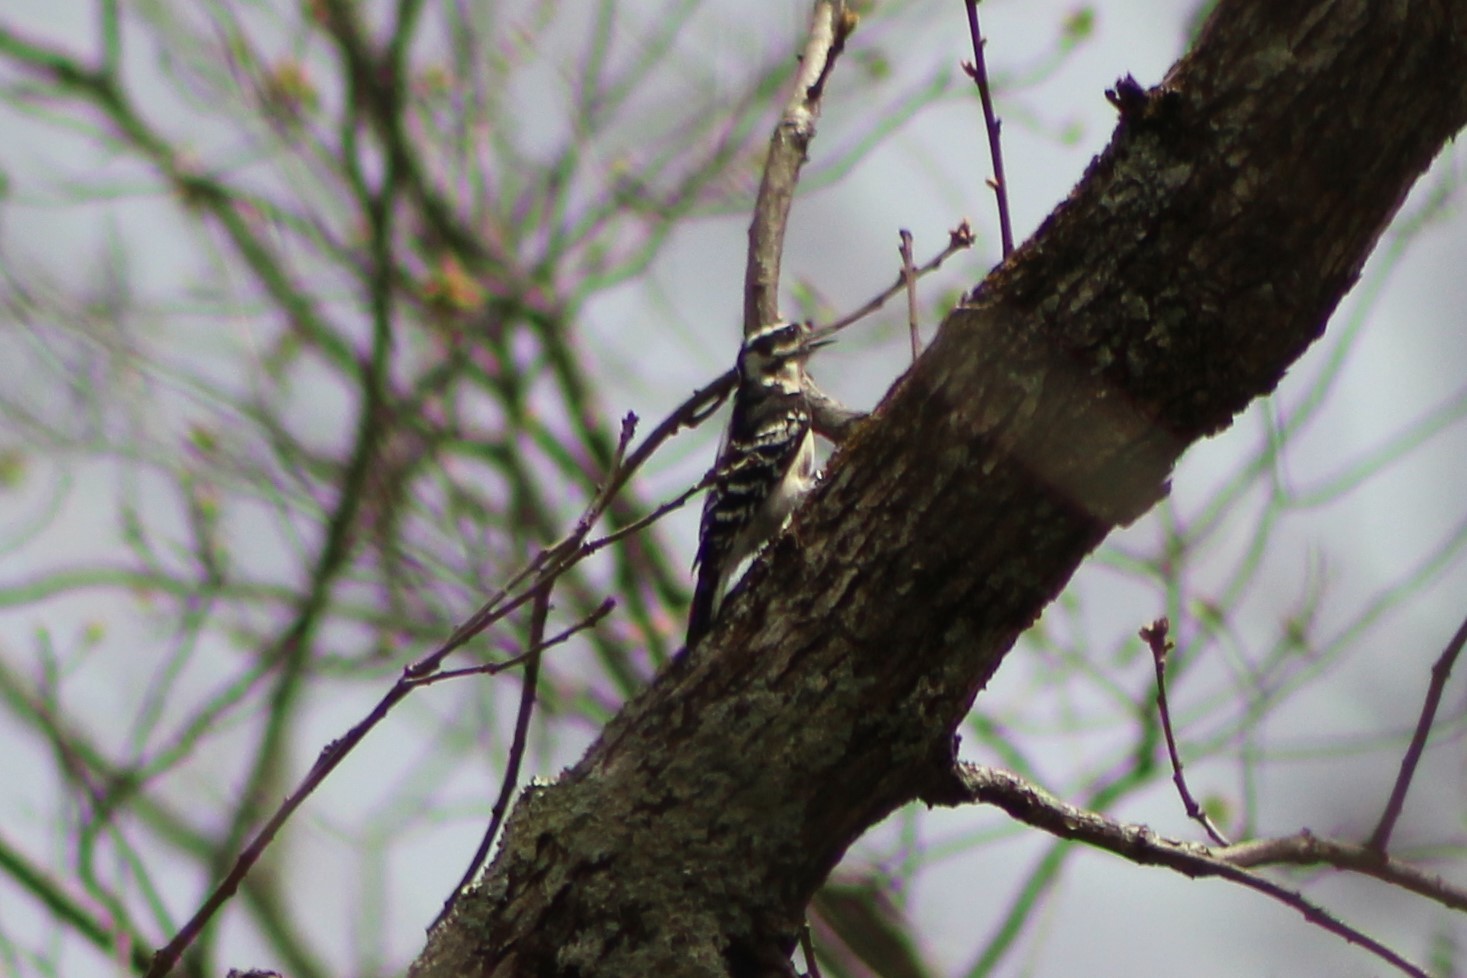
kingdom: Animalia
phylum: Chordata
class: Aves
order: Piciformes
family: Picidae
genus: Leuconotopicus
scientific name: Leuconotopicus villosus
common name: Hairy woodpecker
